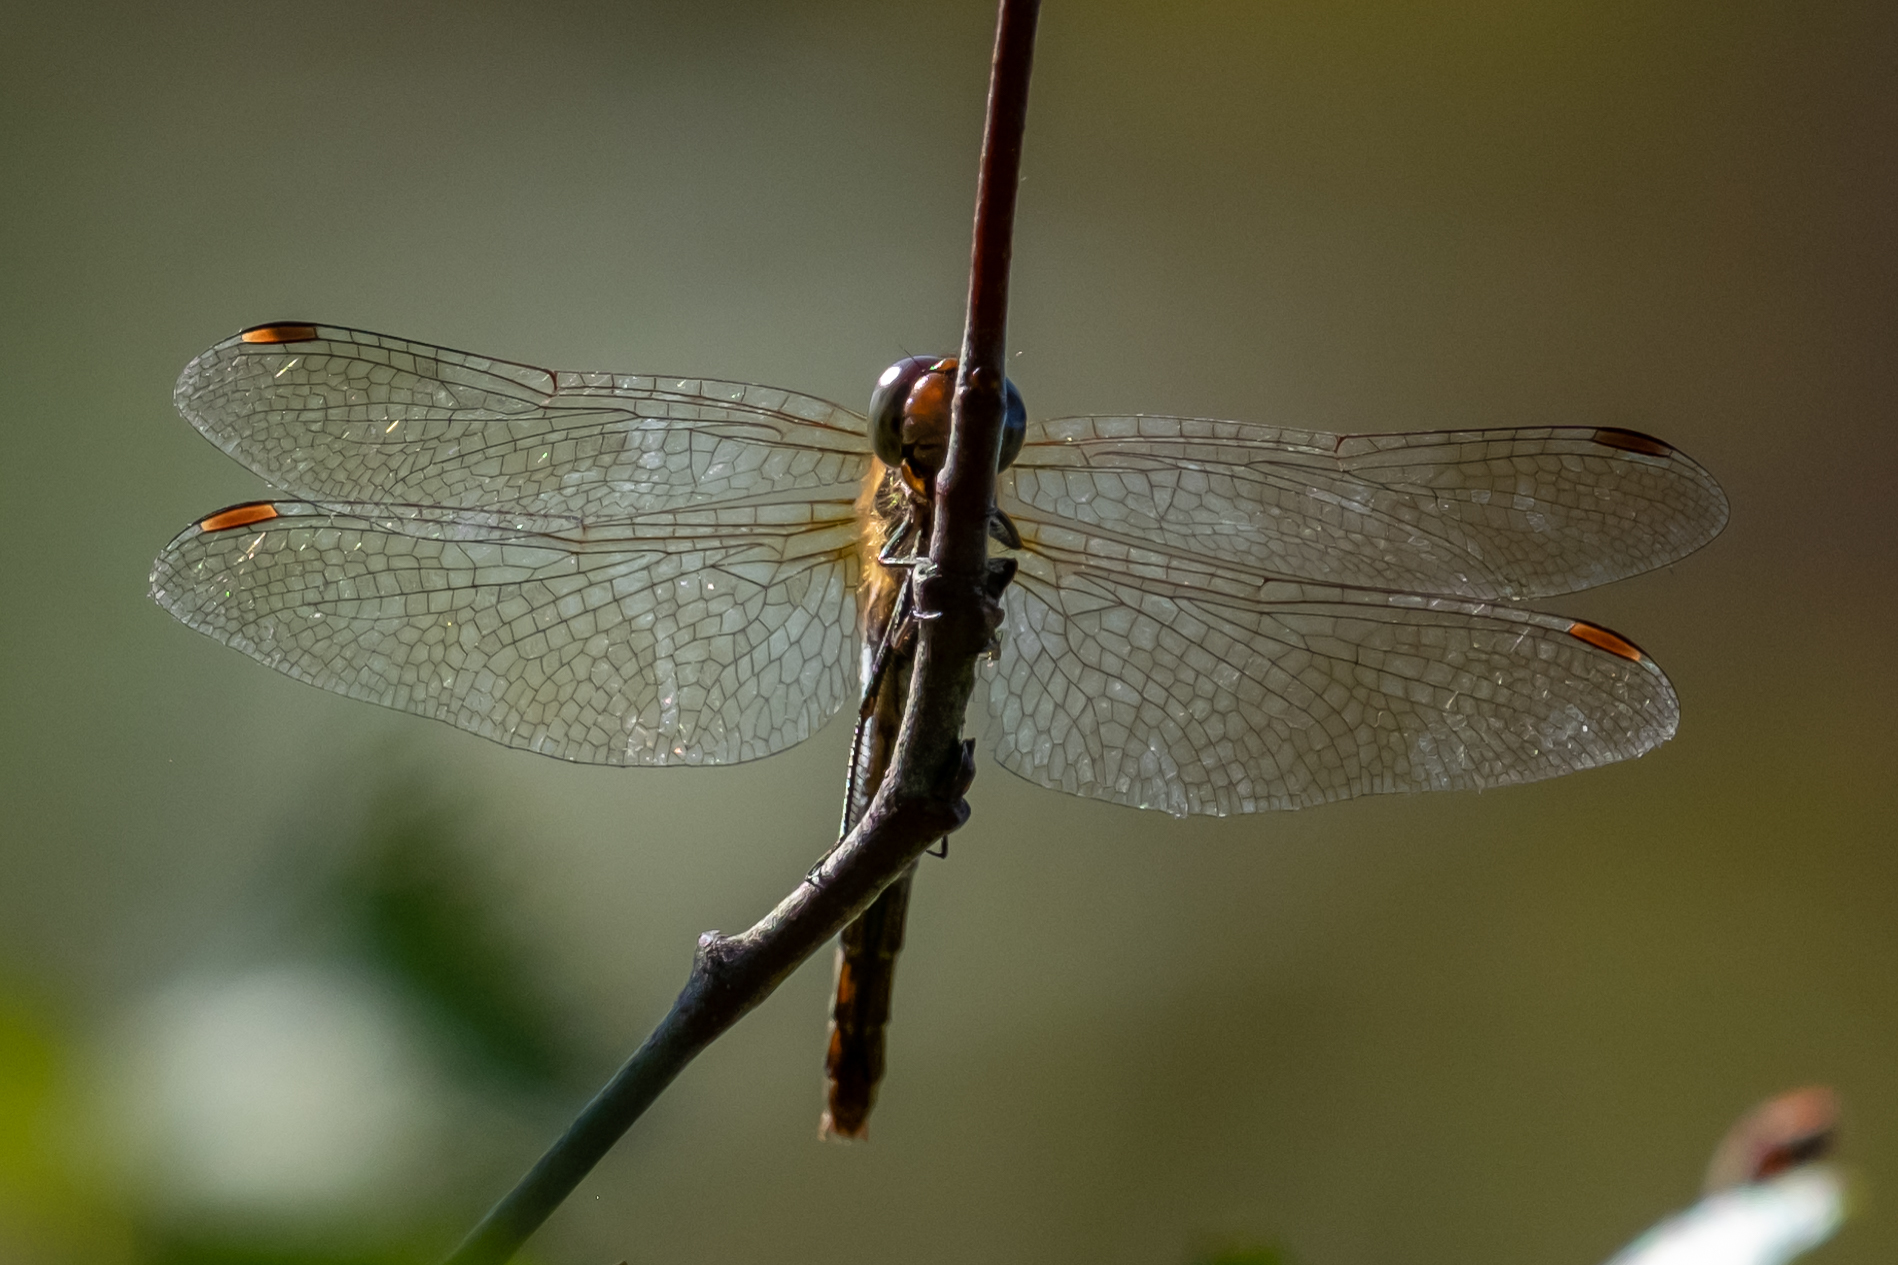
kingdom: Animalia
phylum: Arthropoda
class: Insecta
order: Odonata
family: Libellulidae
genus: Sympetrum
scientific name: Sympetrum striolatum
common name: Common darter
